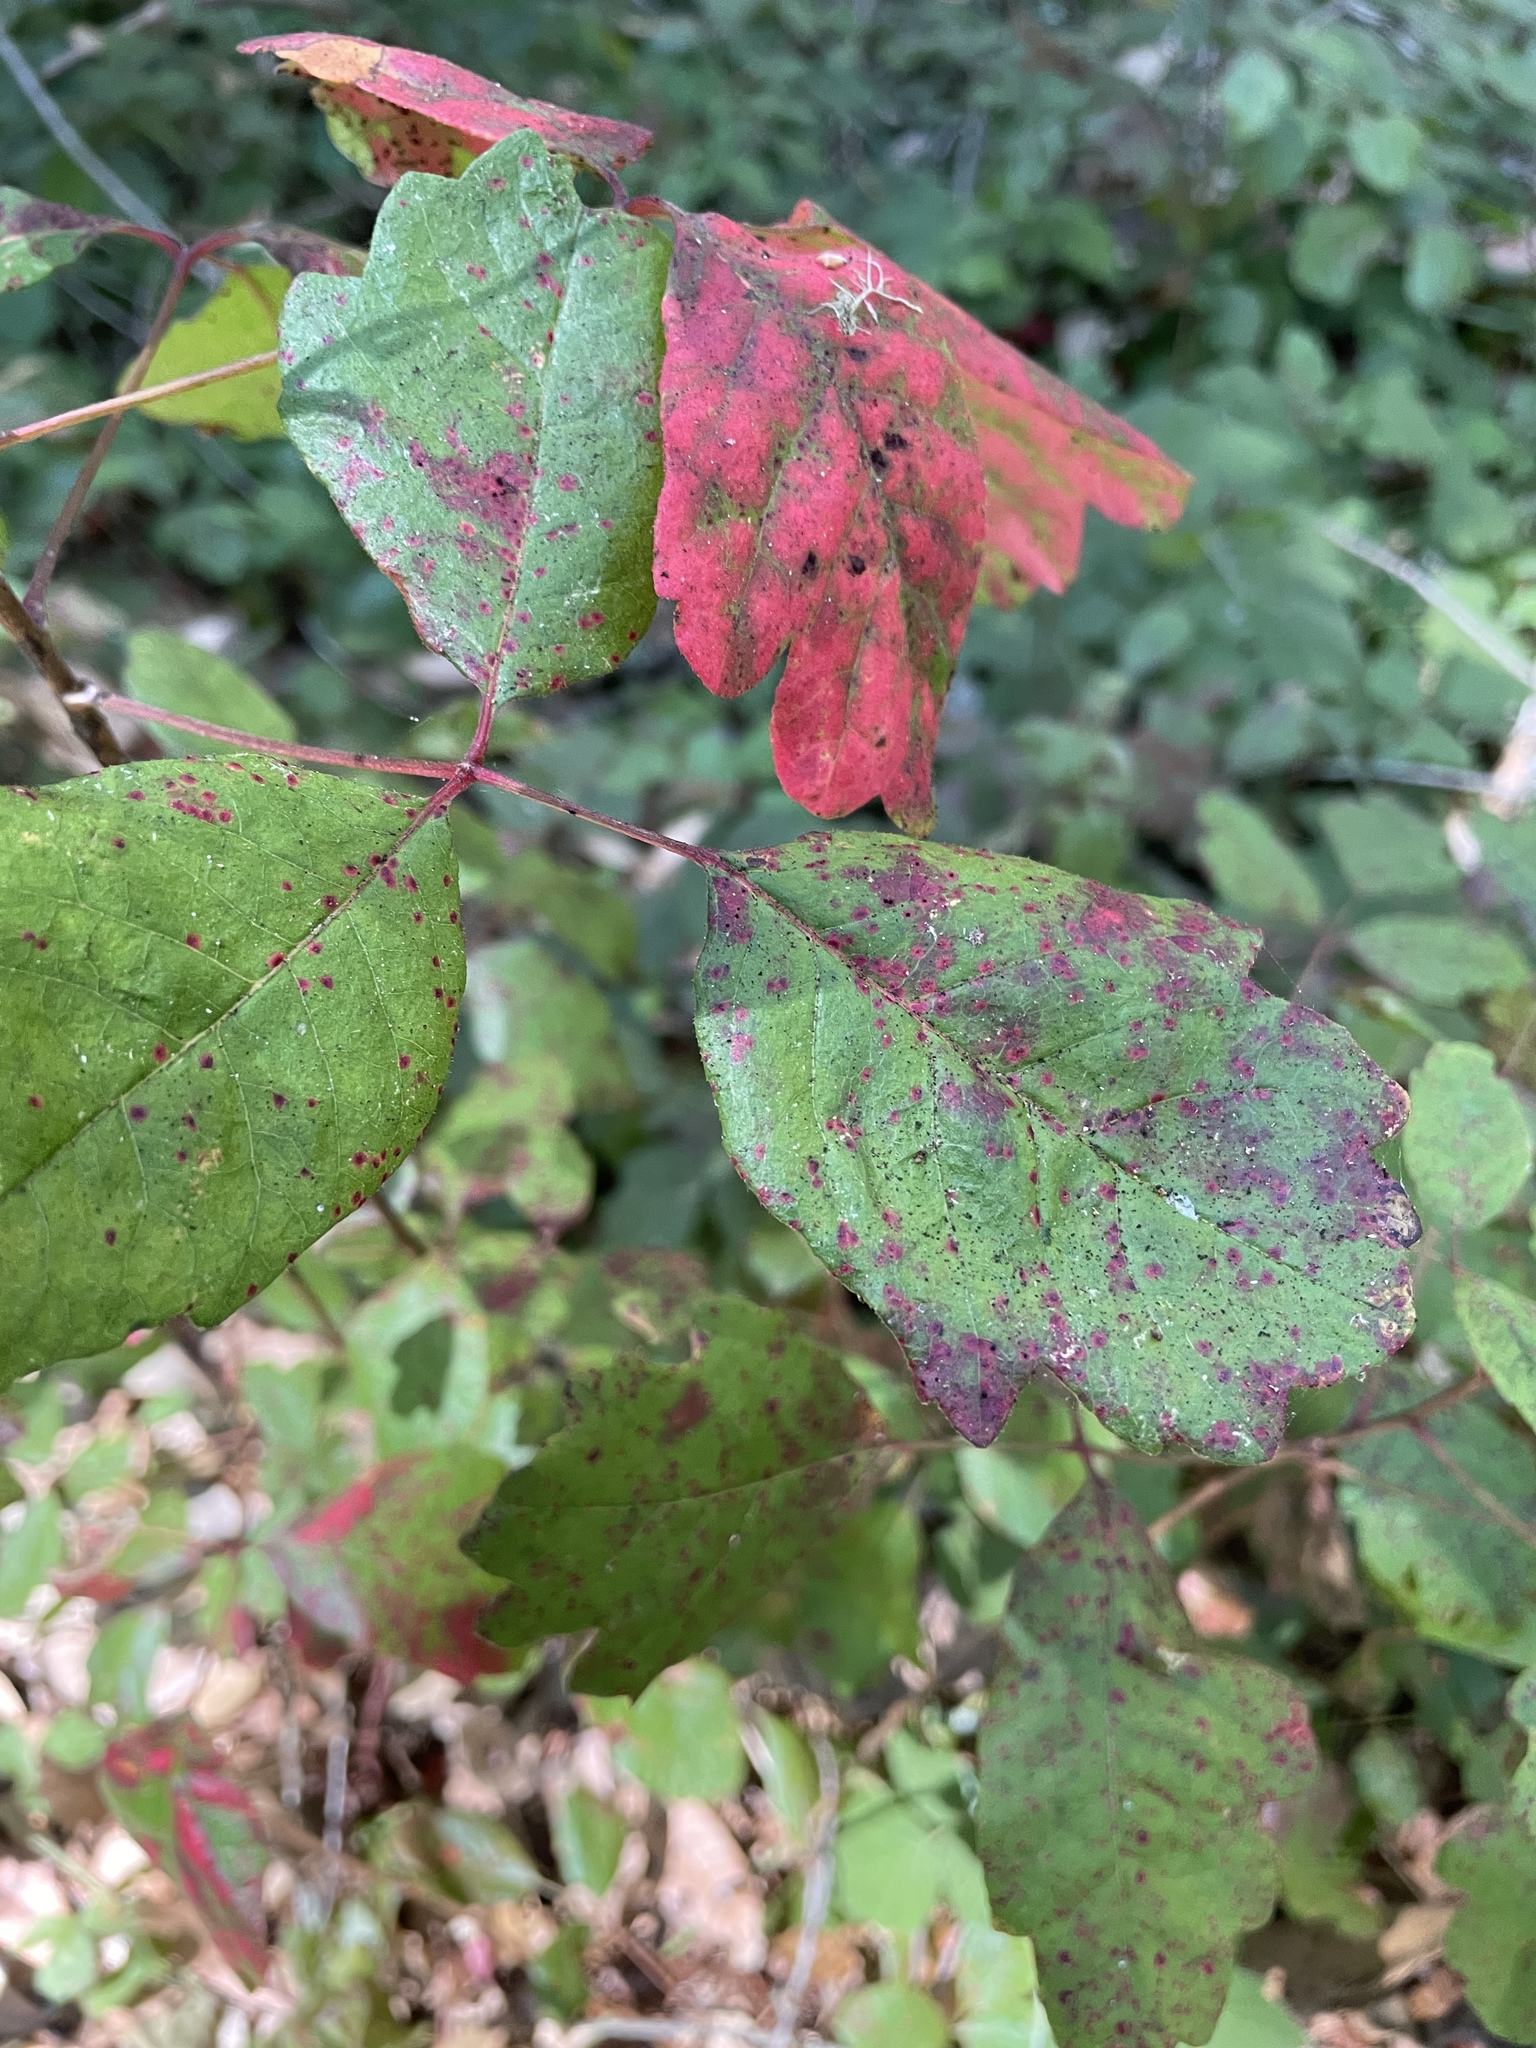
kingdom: Plantae
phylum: Tracheophyta
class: Magnoliopsida
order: Sapindales
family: Anacardiaceae
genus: Toxicodendron
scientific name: Toxicodendron diversilobum
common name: Pacific poison-oak
